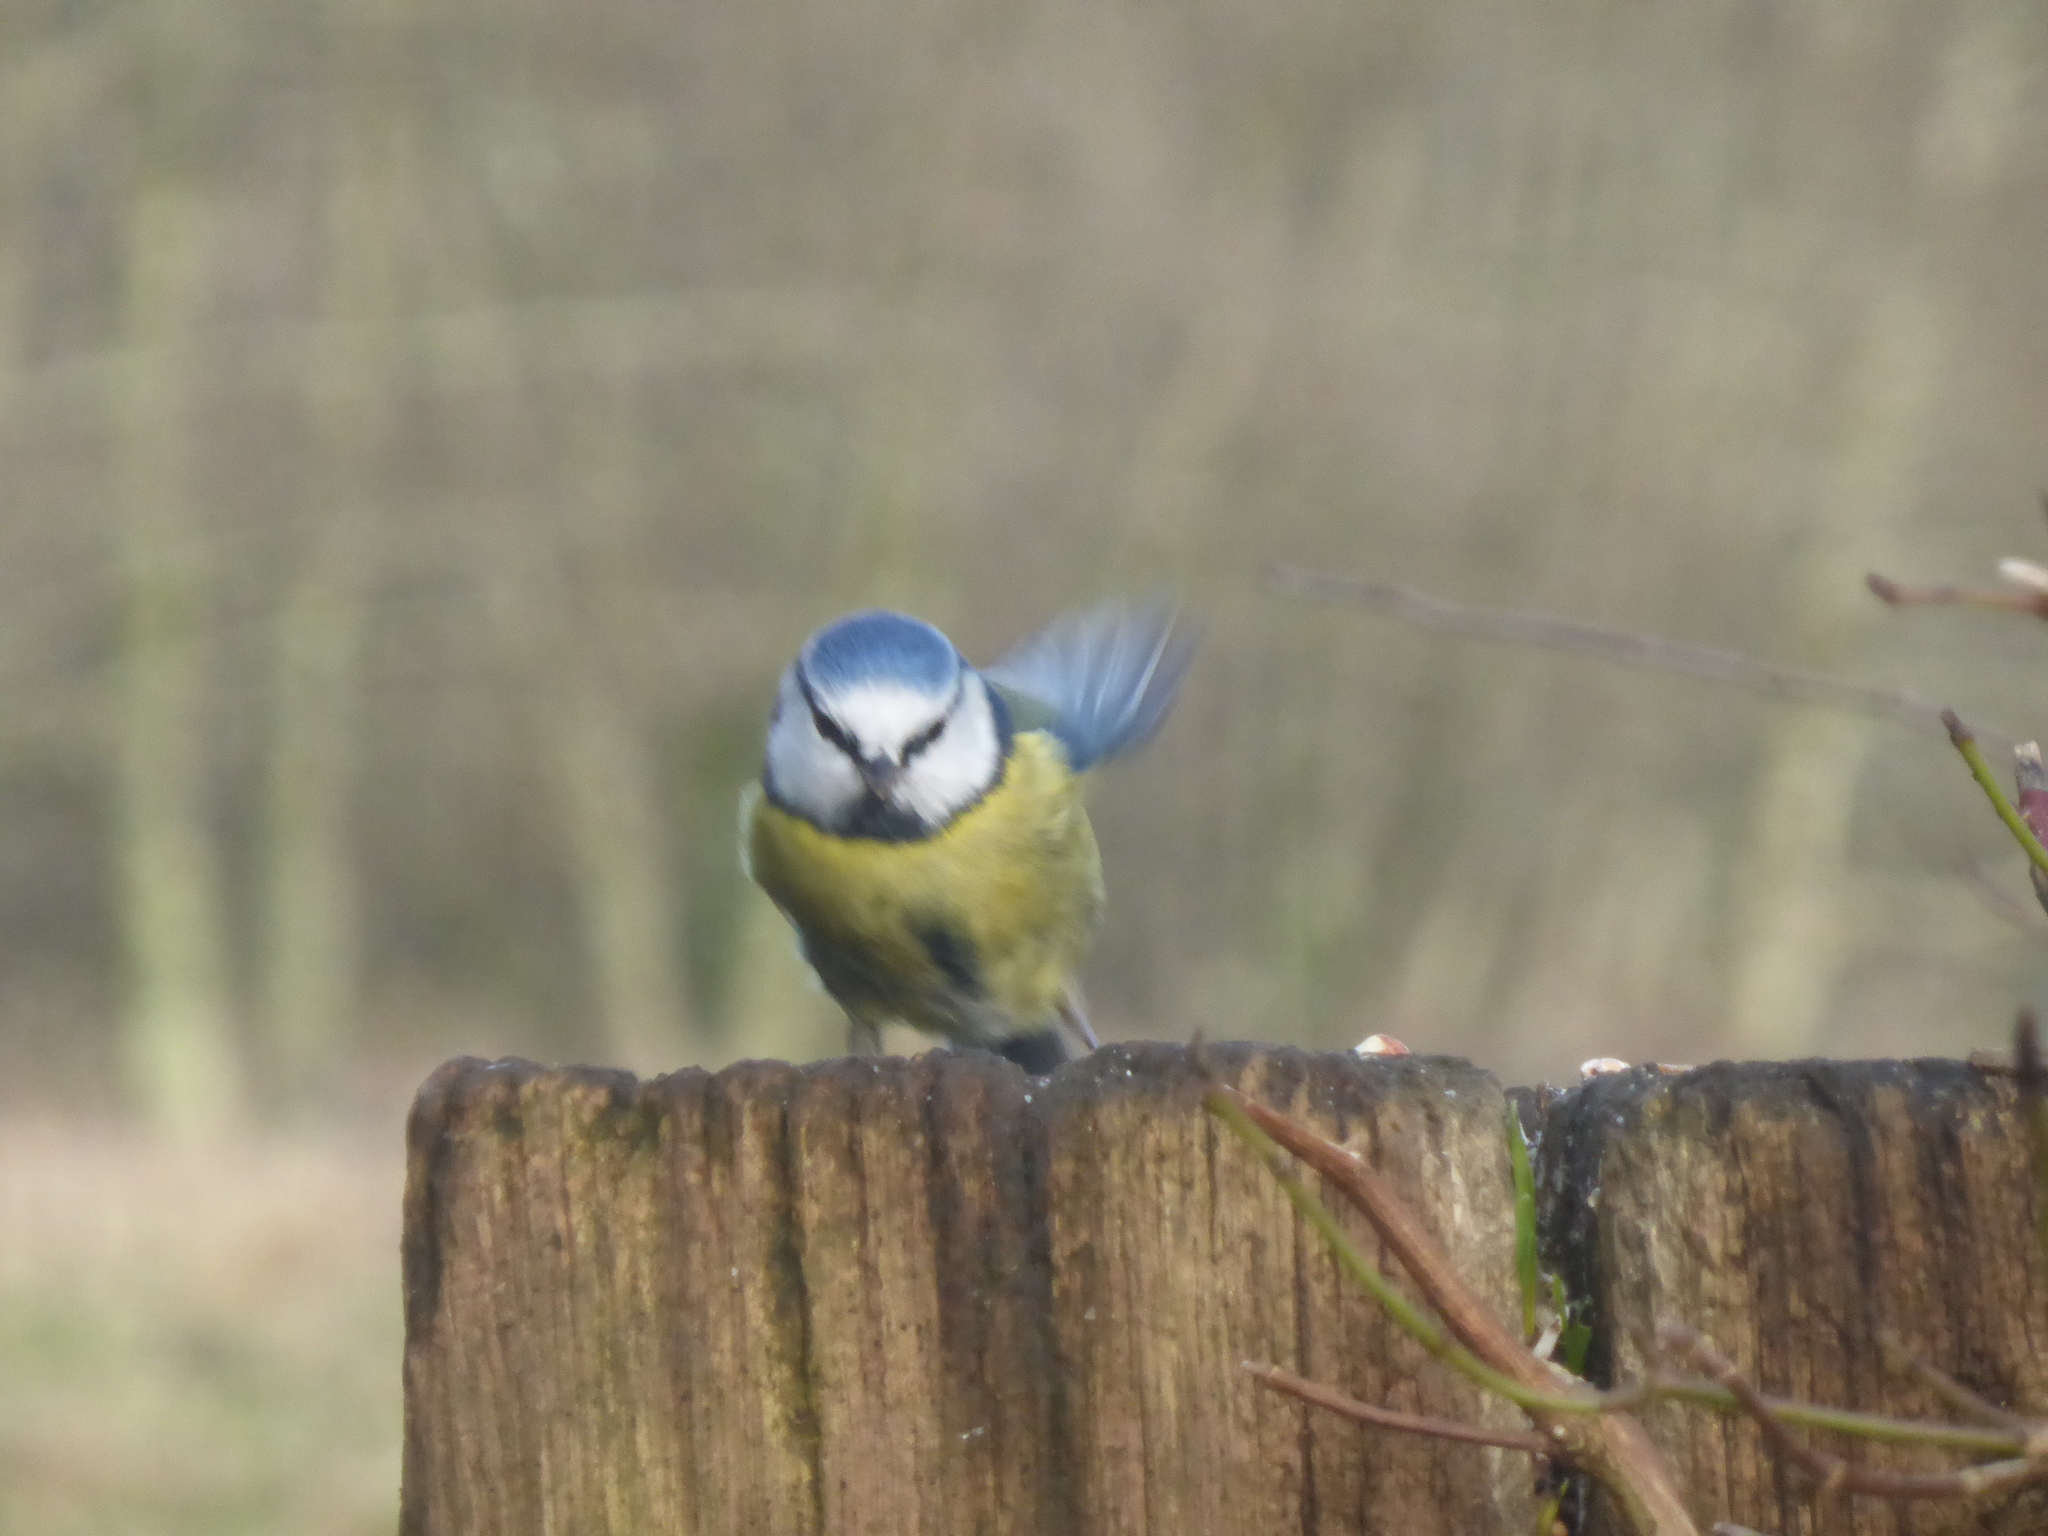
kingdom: Animalia
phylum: Chordata
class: Aves
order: Passeriformes
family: Paridae
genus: Cyanistes
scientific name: Cyanistes caeruleus
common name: Eurasian blue tit
